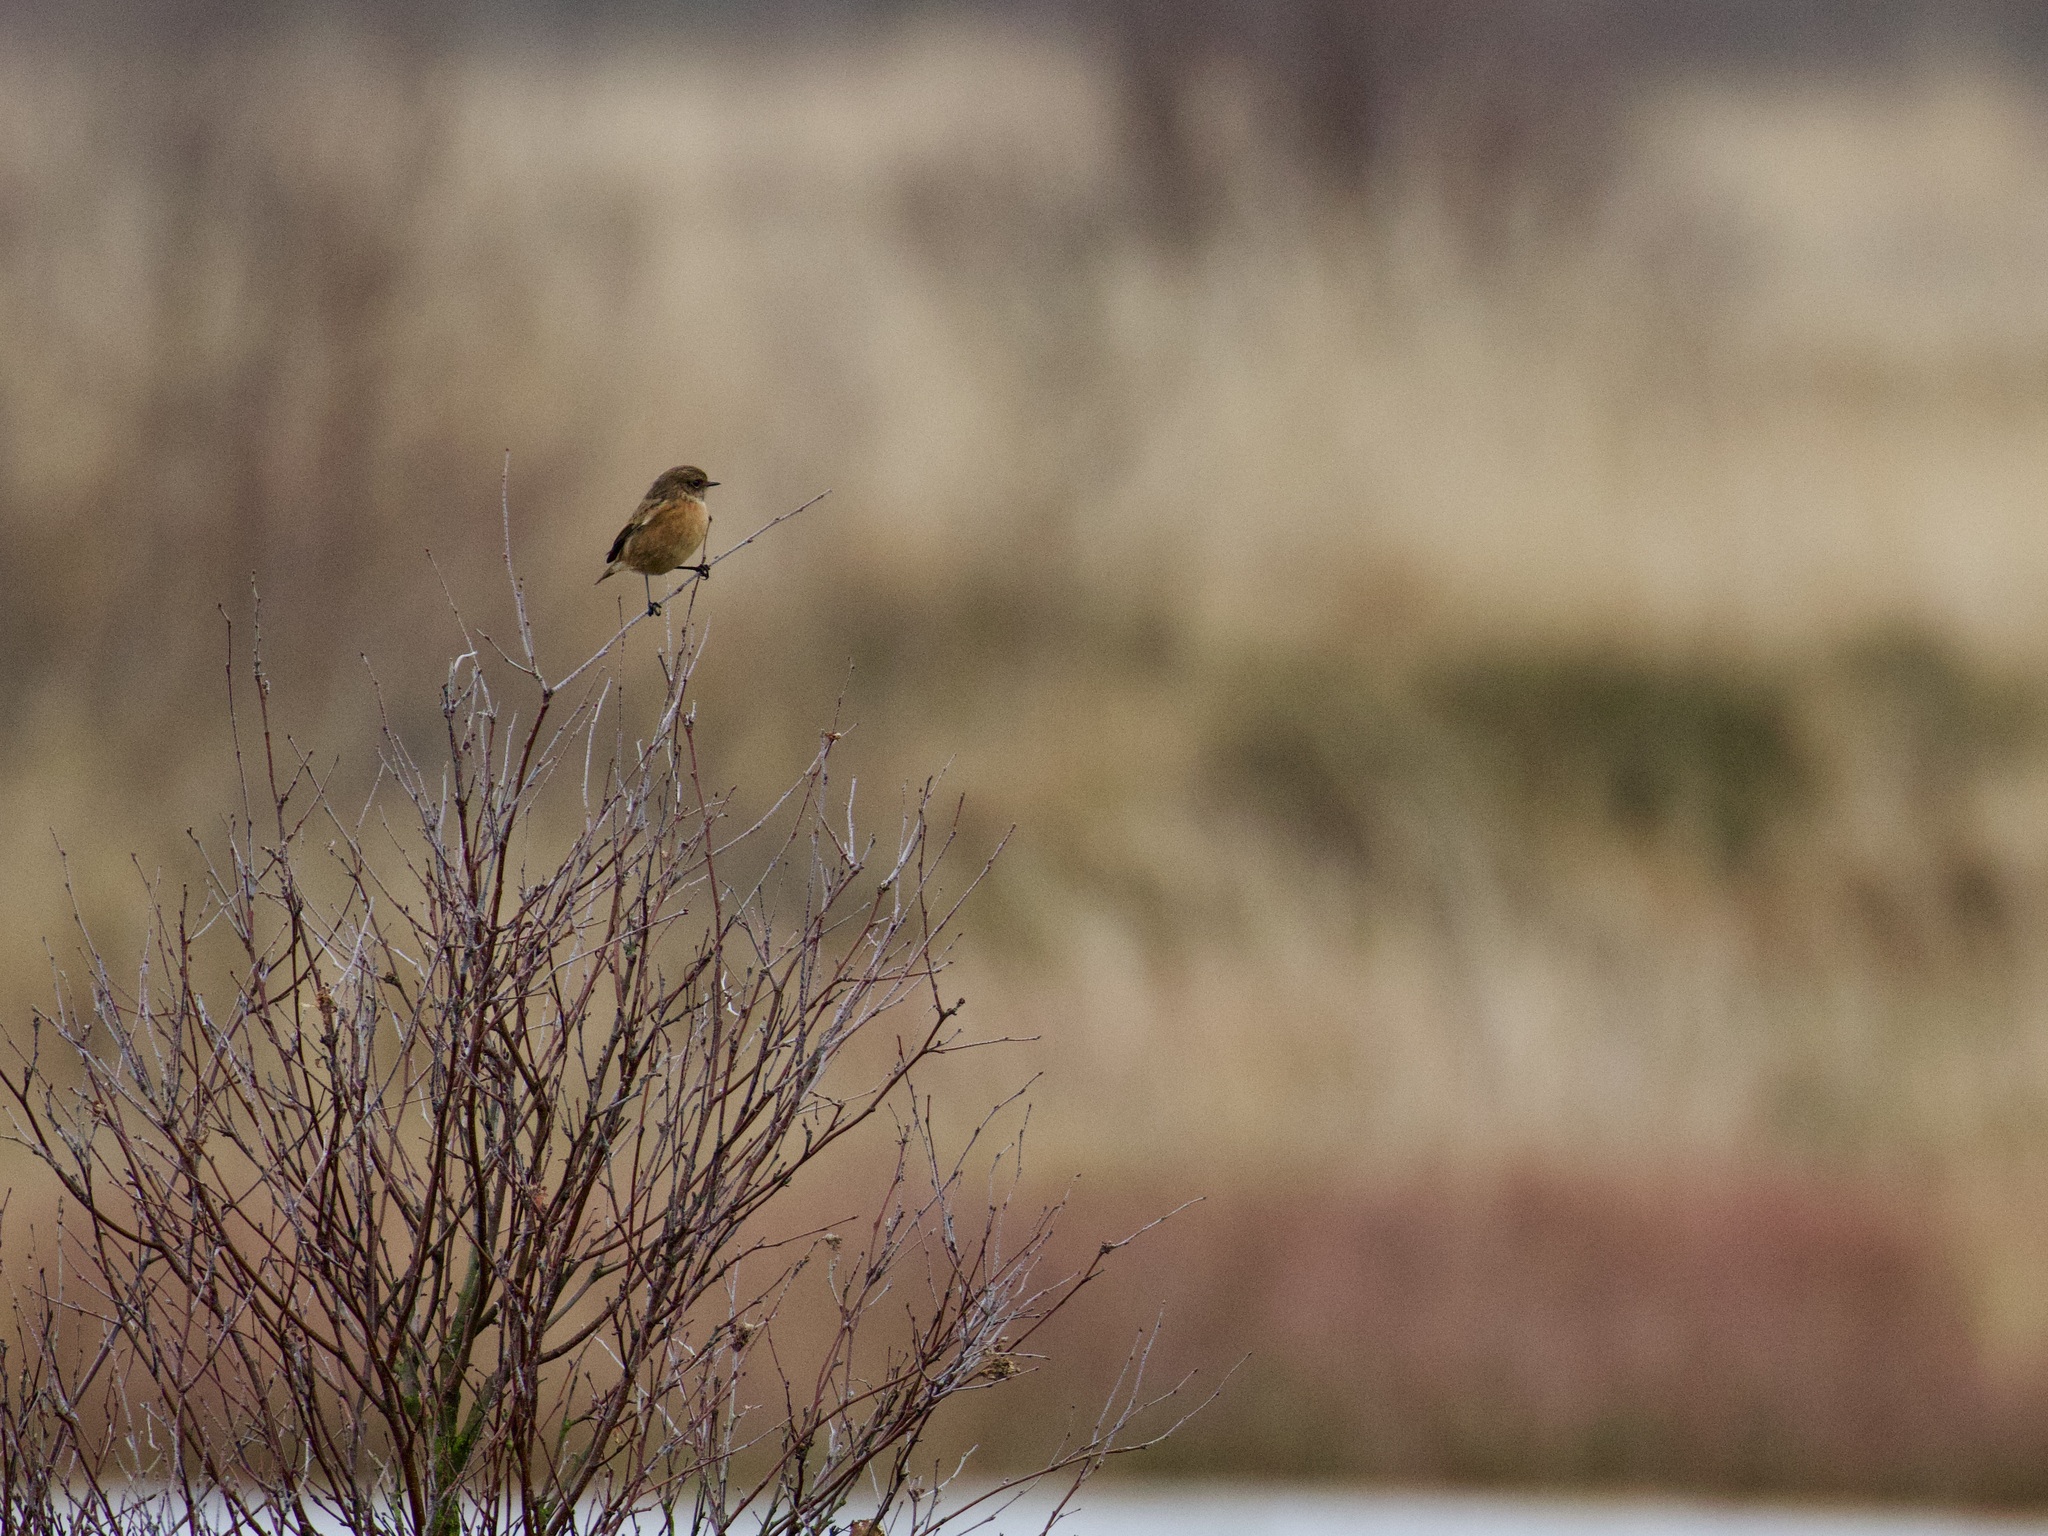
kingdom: Animalia
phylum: Chordata
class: Aves
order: Passeriformes
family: Muscicapidae
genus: Saxicola
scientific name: Saxicola rubicola
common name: European stonechat
